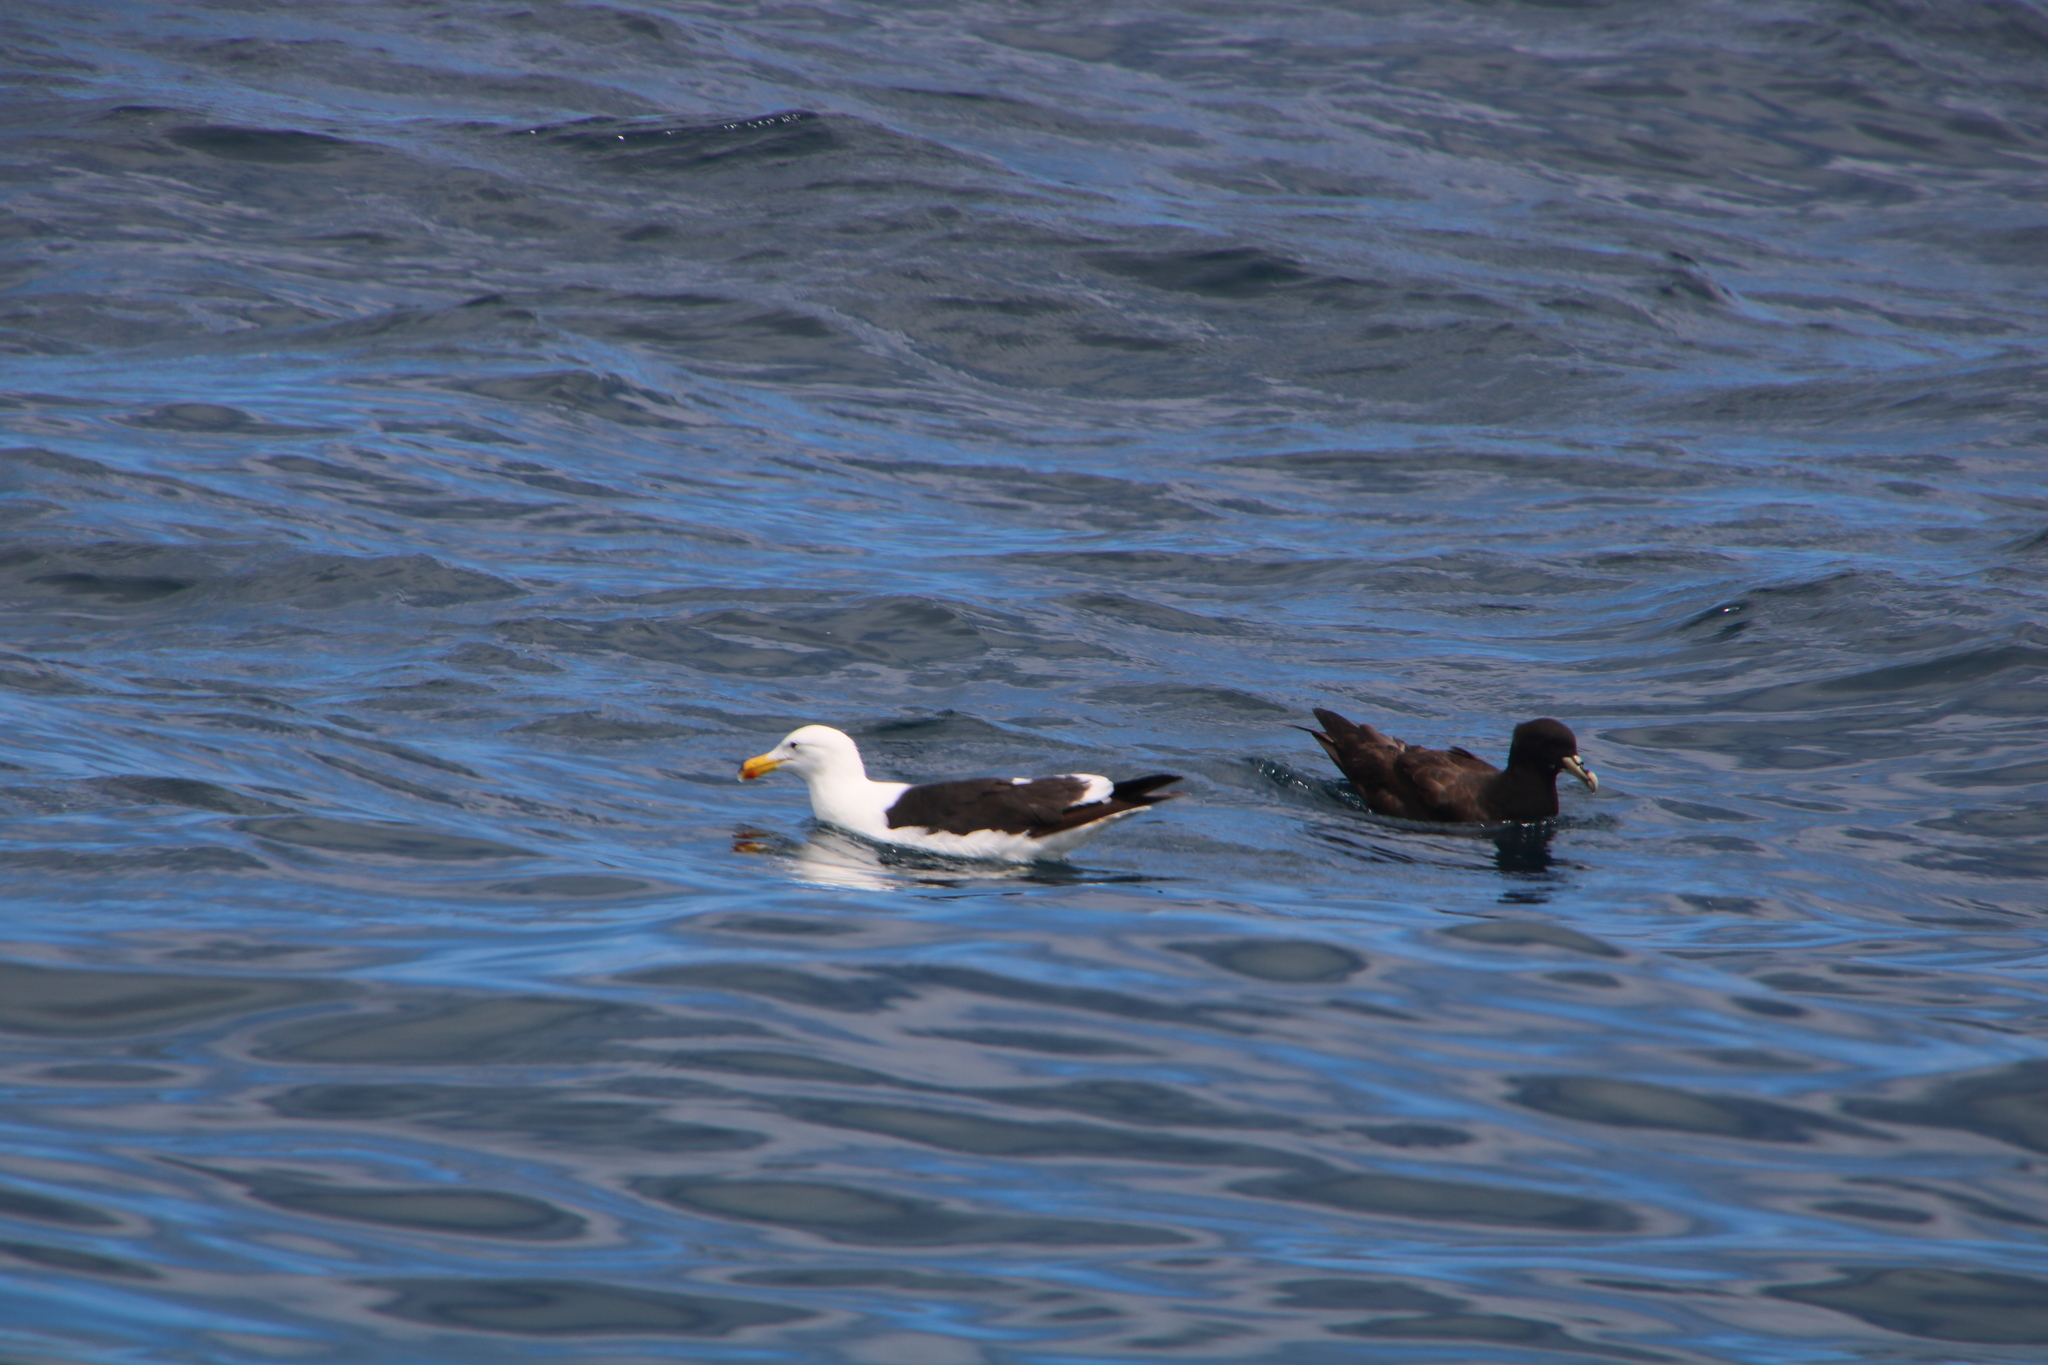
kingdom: Animalia
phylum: Chordata
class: Aves
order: Charadriiformes
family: Laridae
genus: Larus
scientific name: Larus dominicanus
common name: Kelp gull
